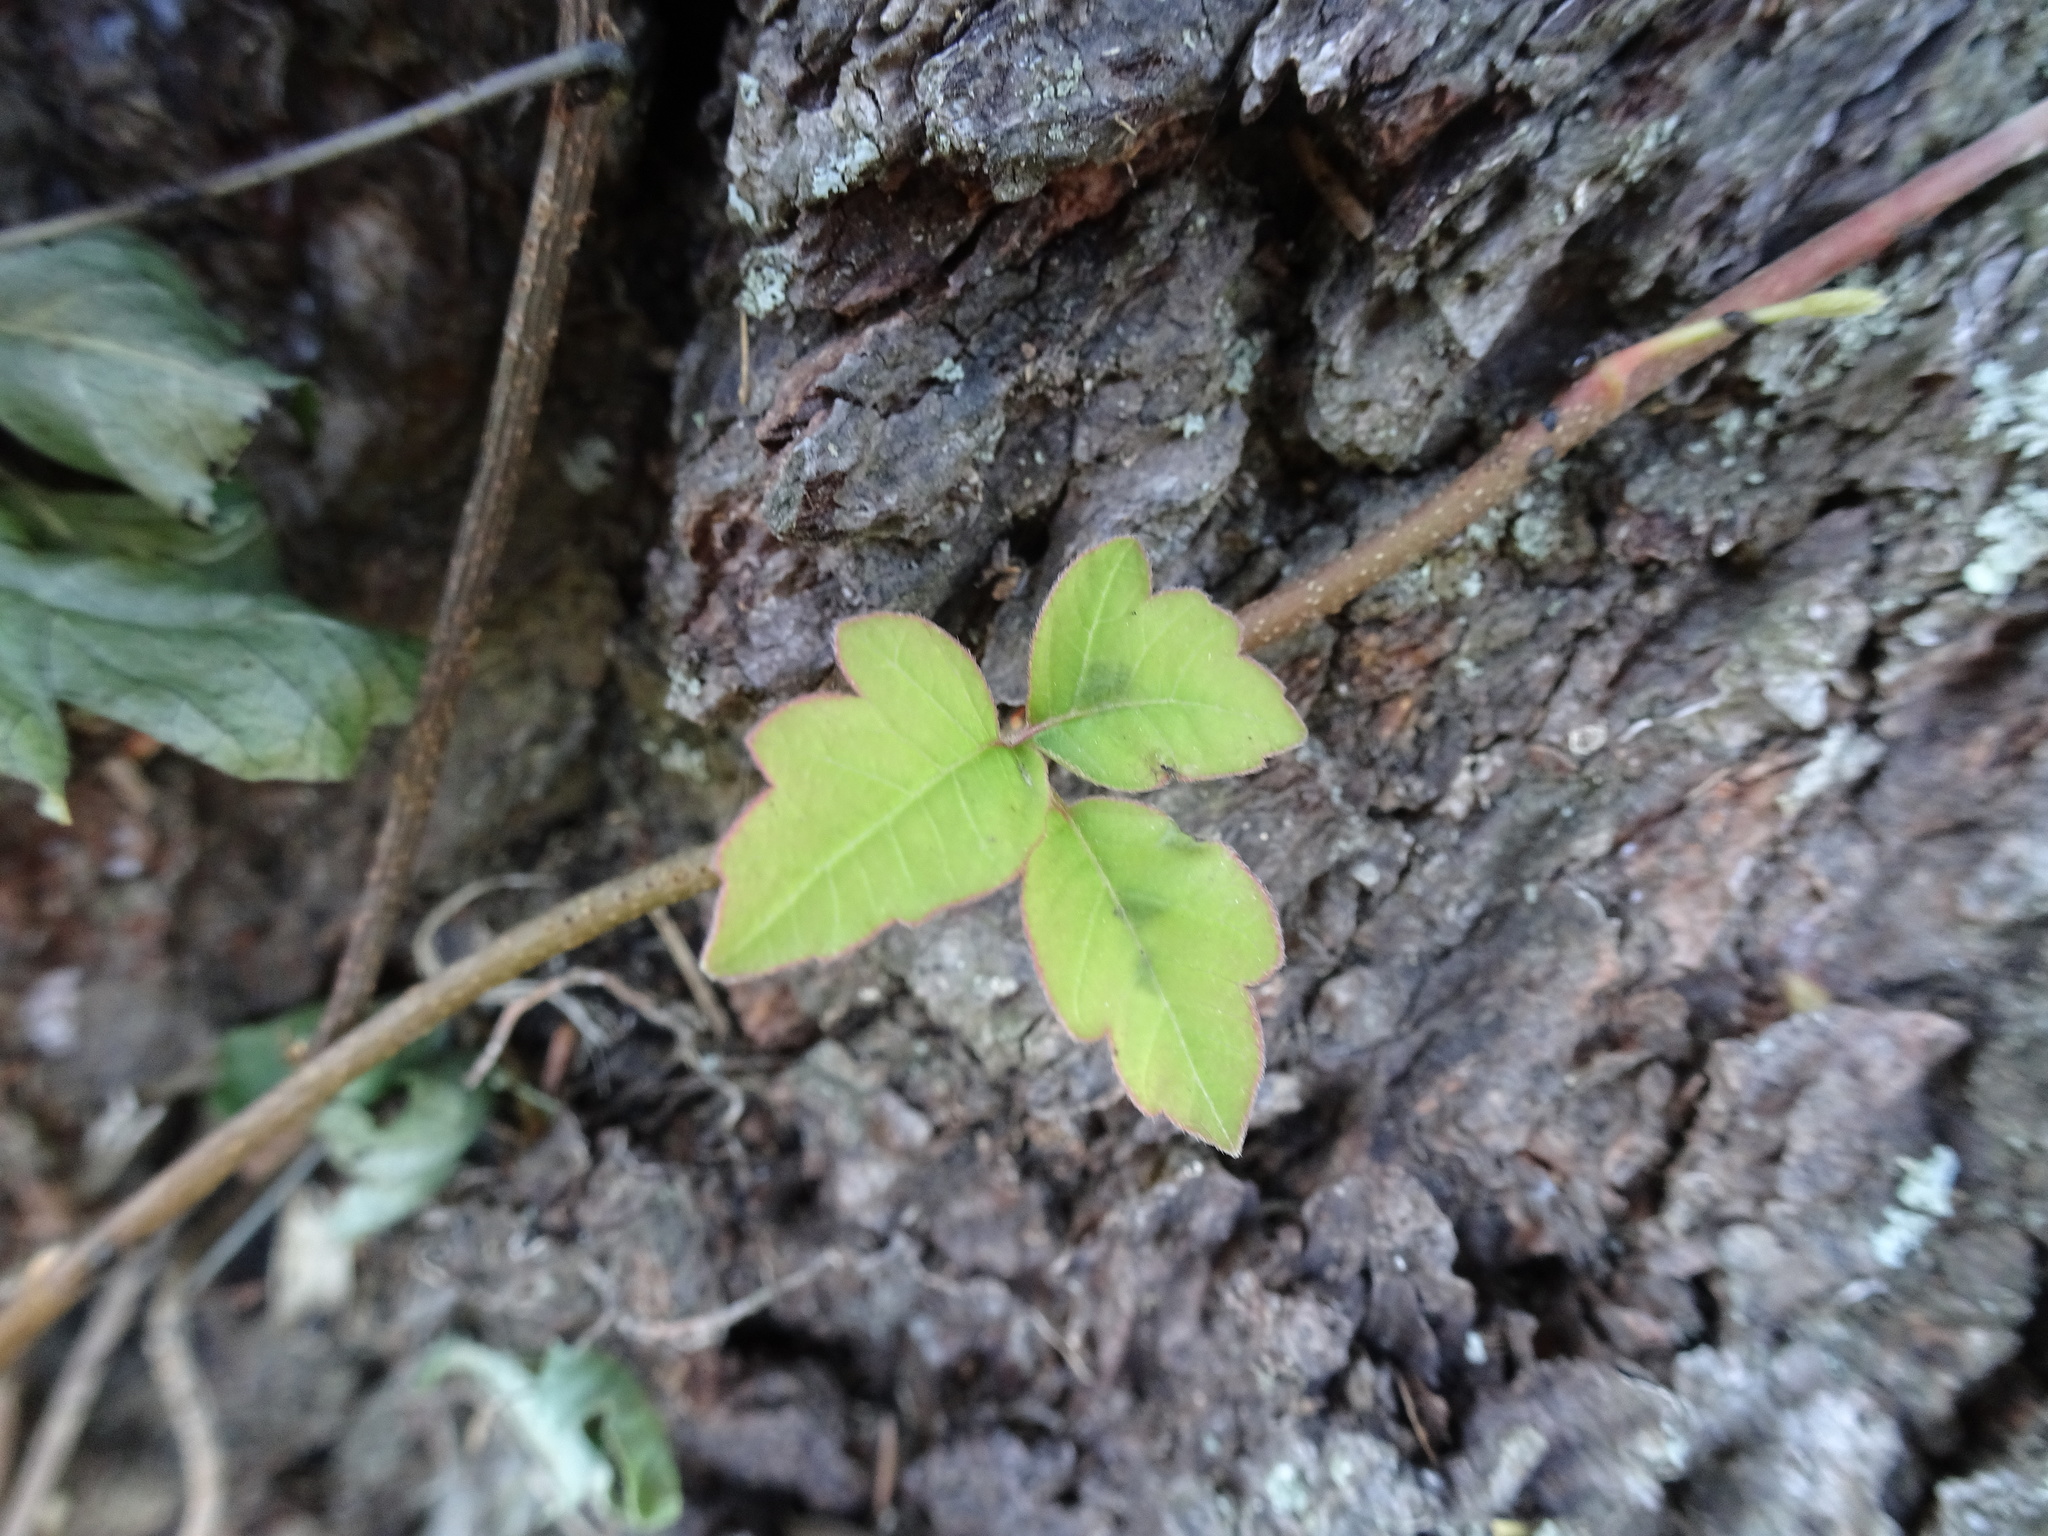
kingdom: Plantae
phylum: Tracheophyta
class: Magnoliopsida
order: Sapindales
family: Anacardiaceae
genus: Toxicodendron
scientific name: Toxicodendron radicans
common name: Poison ivy
